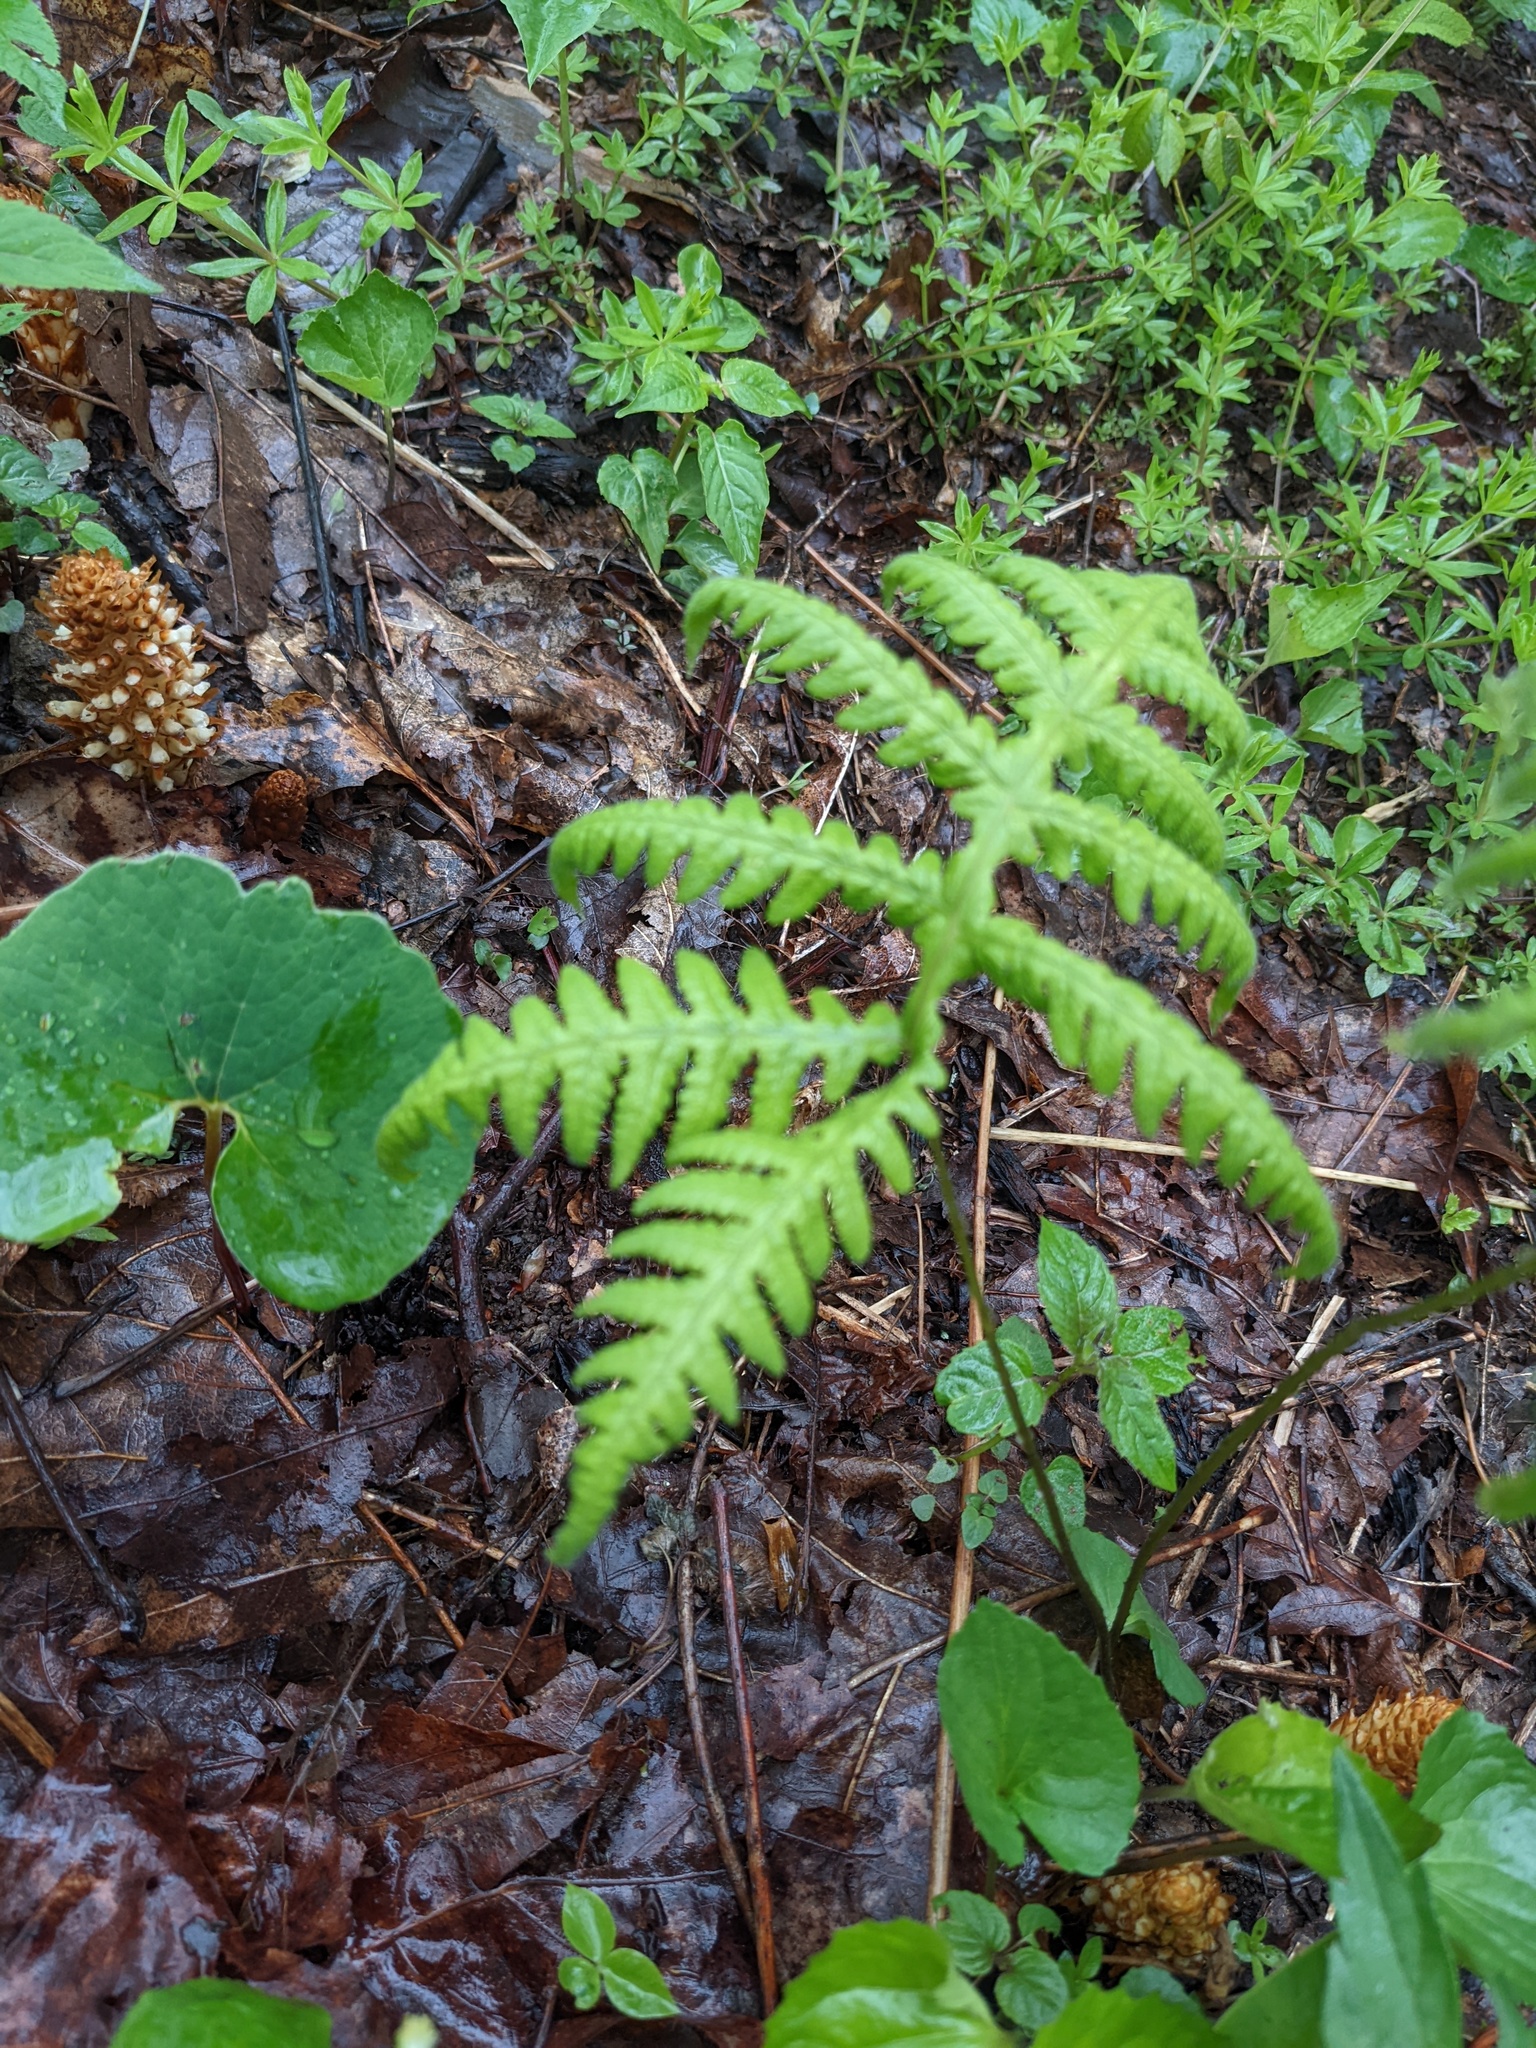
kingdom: Plantae
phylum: Tracheophyta
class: Polypodiopsida
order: Polypodiales
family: Thelypteridaceae
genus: Phegopteris
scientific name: Phegopteris hexagonoptera
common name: Broad beech fern
